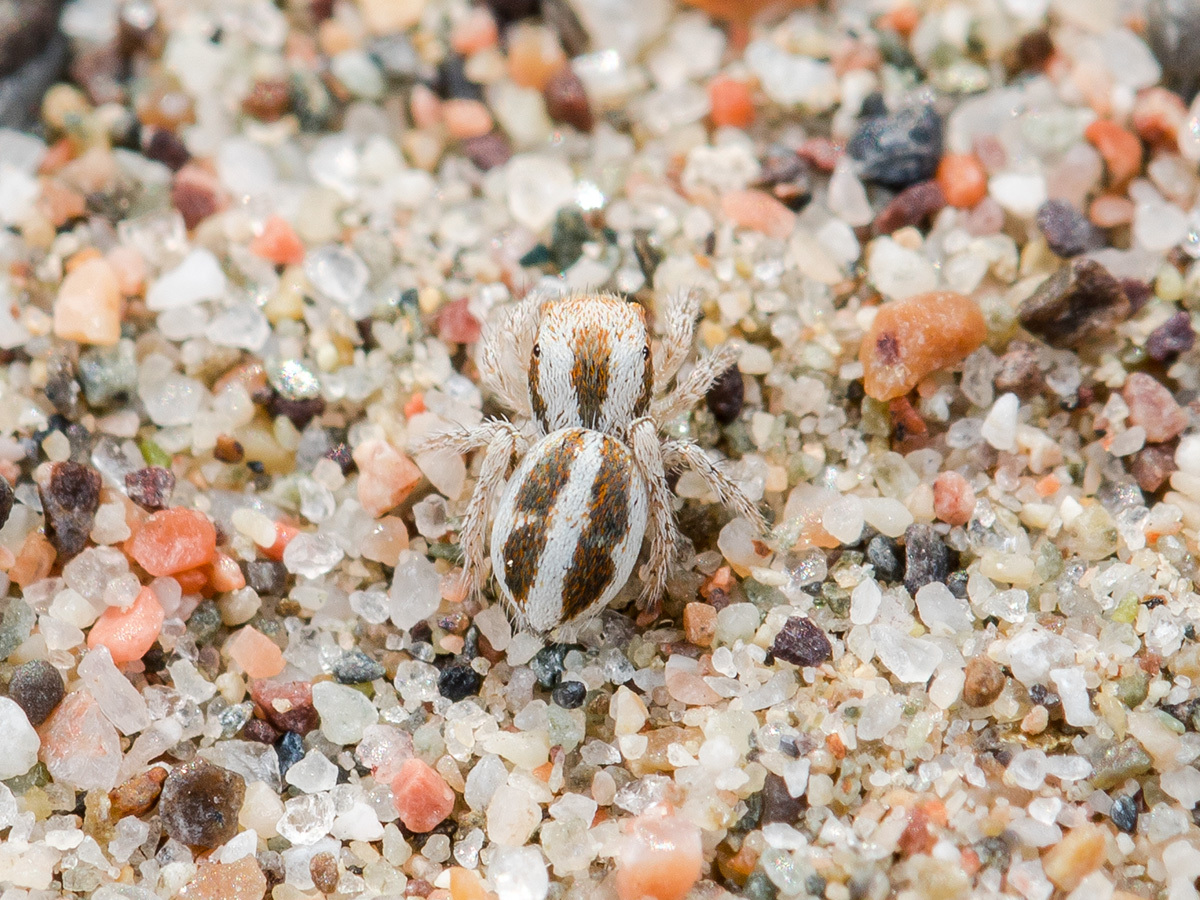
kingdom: Animalia
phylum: Arthropoda
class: Arachnida
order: Araneae
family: Salticidae
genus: Pseudomogrus
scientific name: Pseudomogrus bucharaensis
